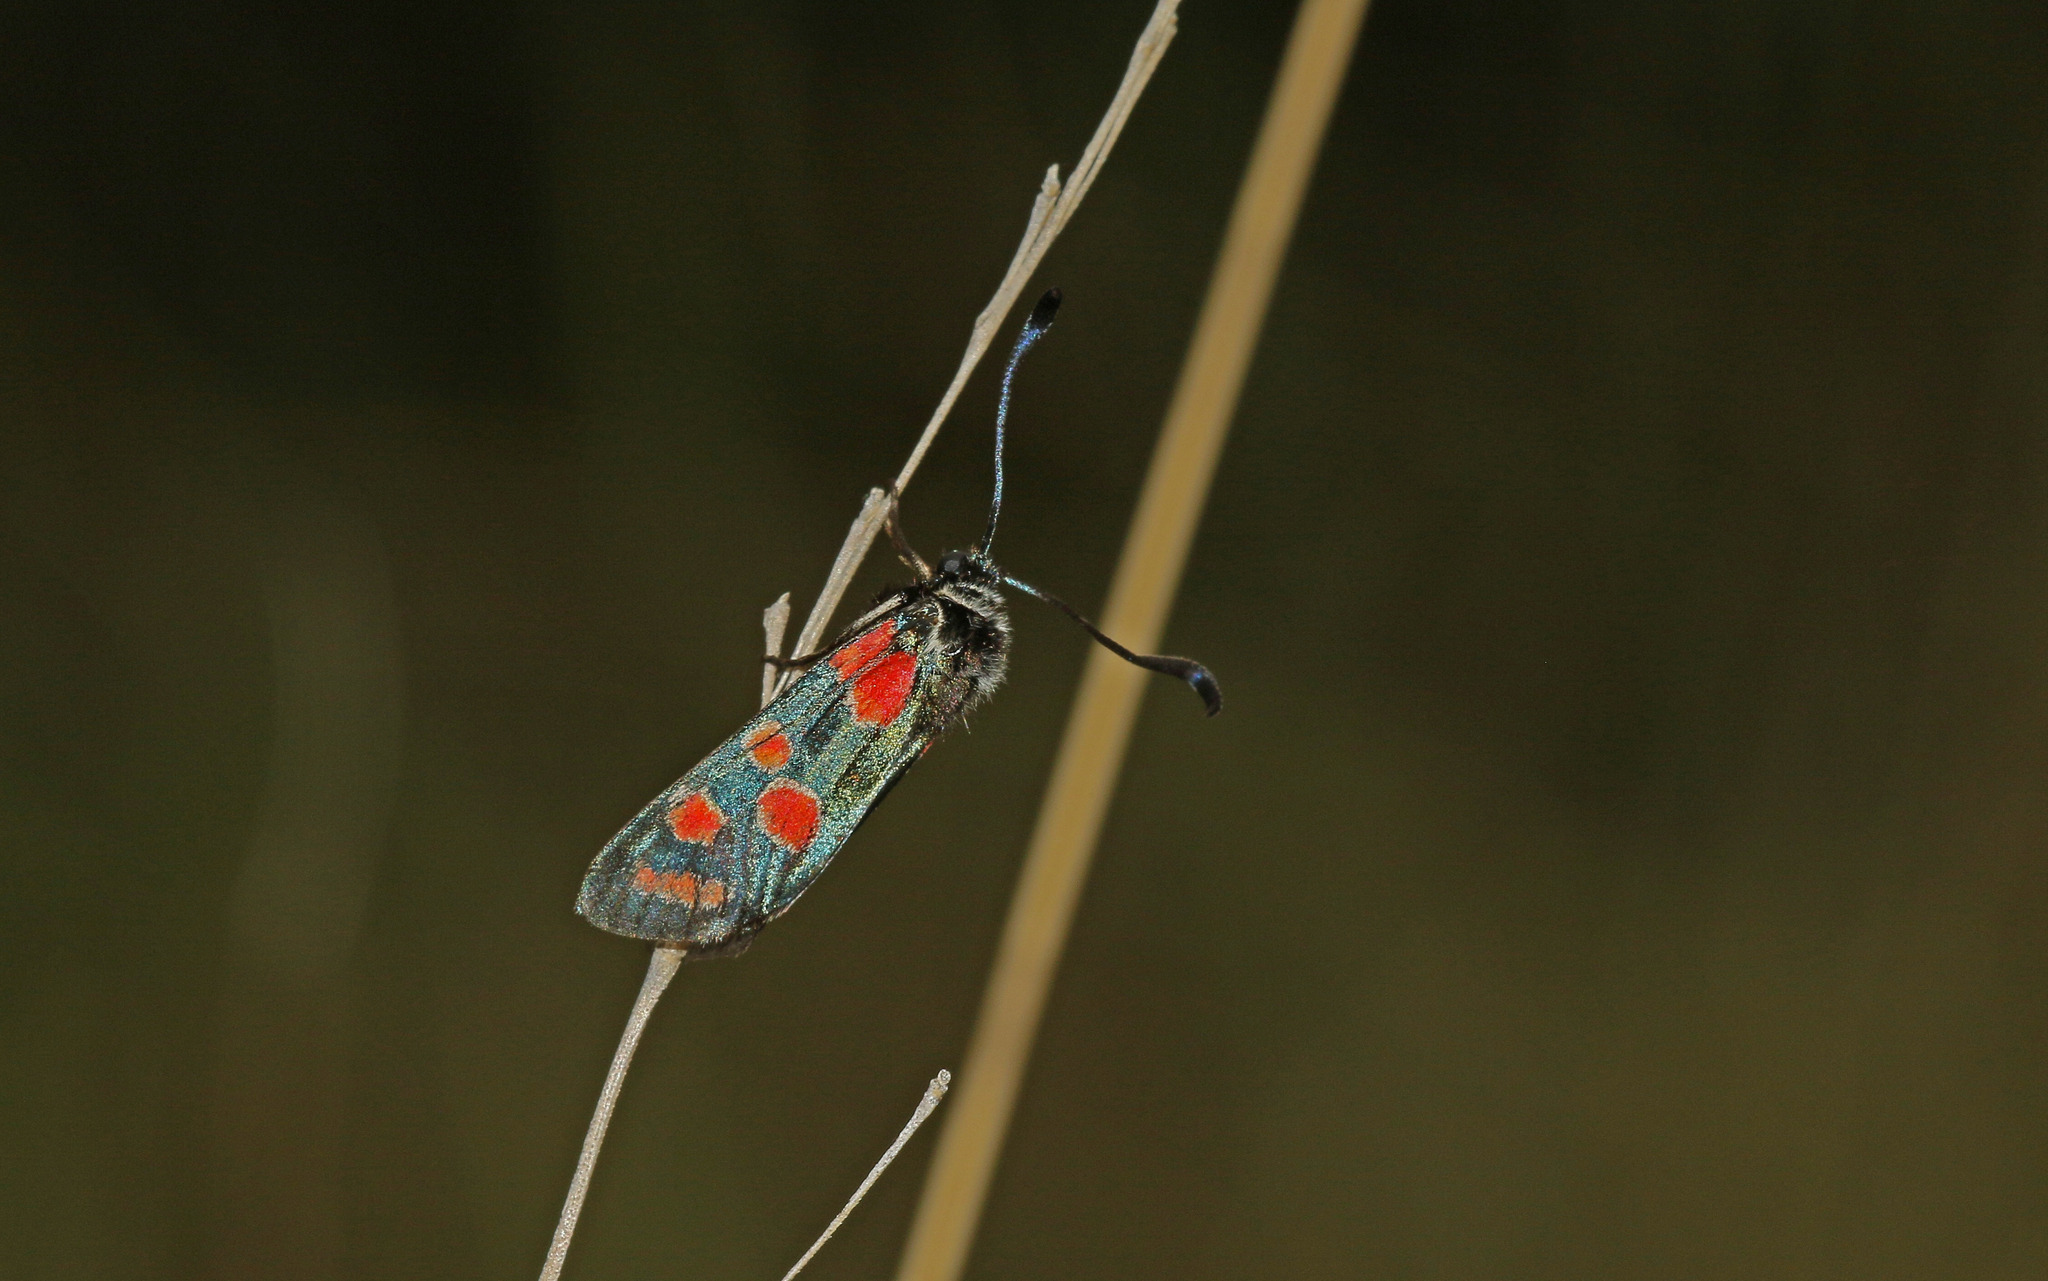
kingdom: Animalia
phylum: Arthropoda
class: Insecta
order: Lepidoptera
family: Zygaenidae
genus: Zygaena
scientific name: Zygaena carniolica
